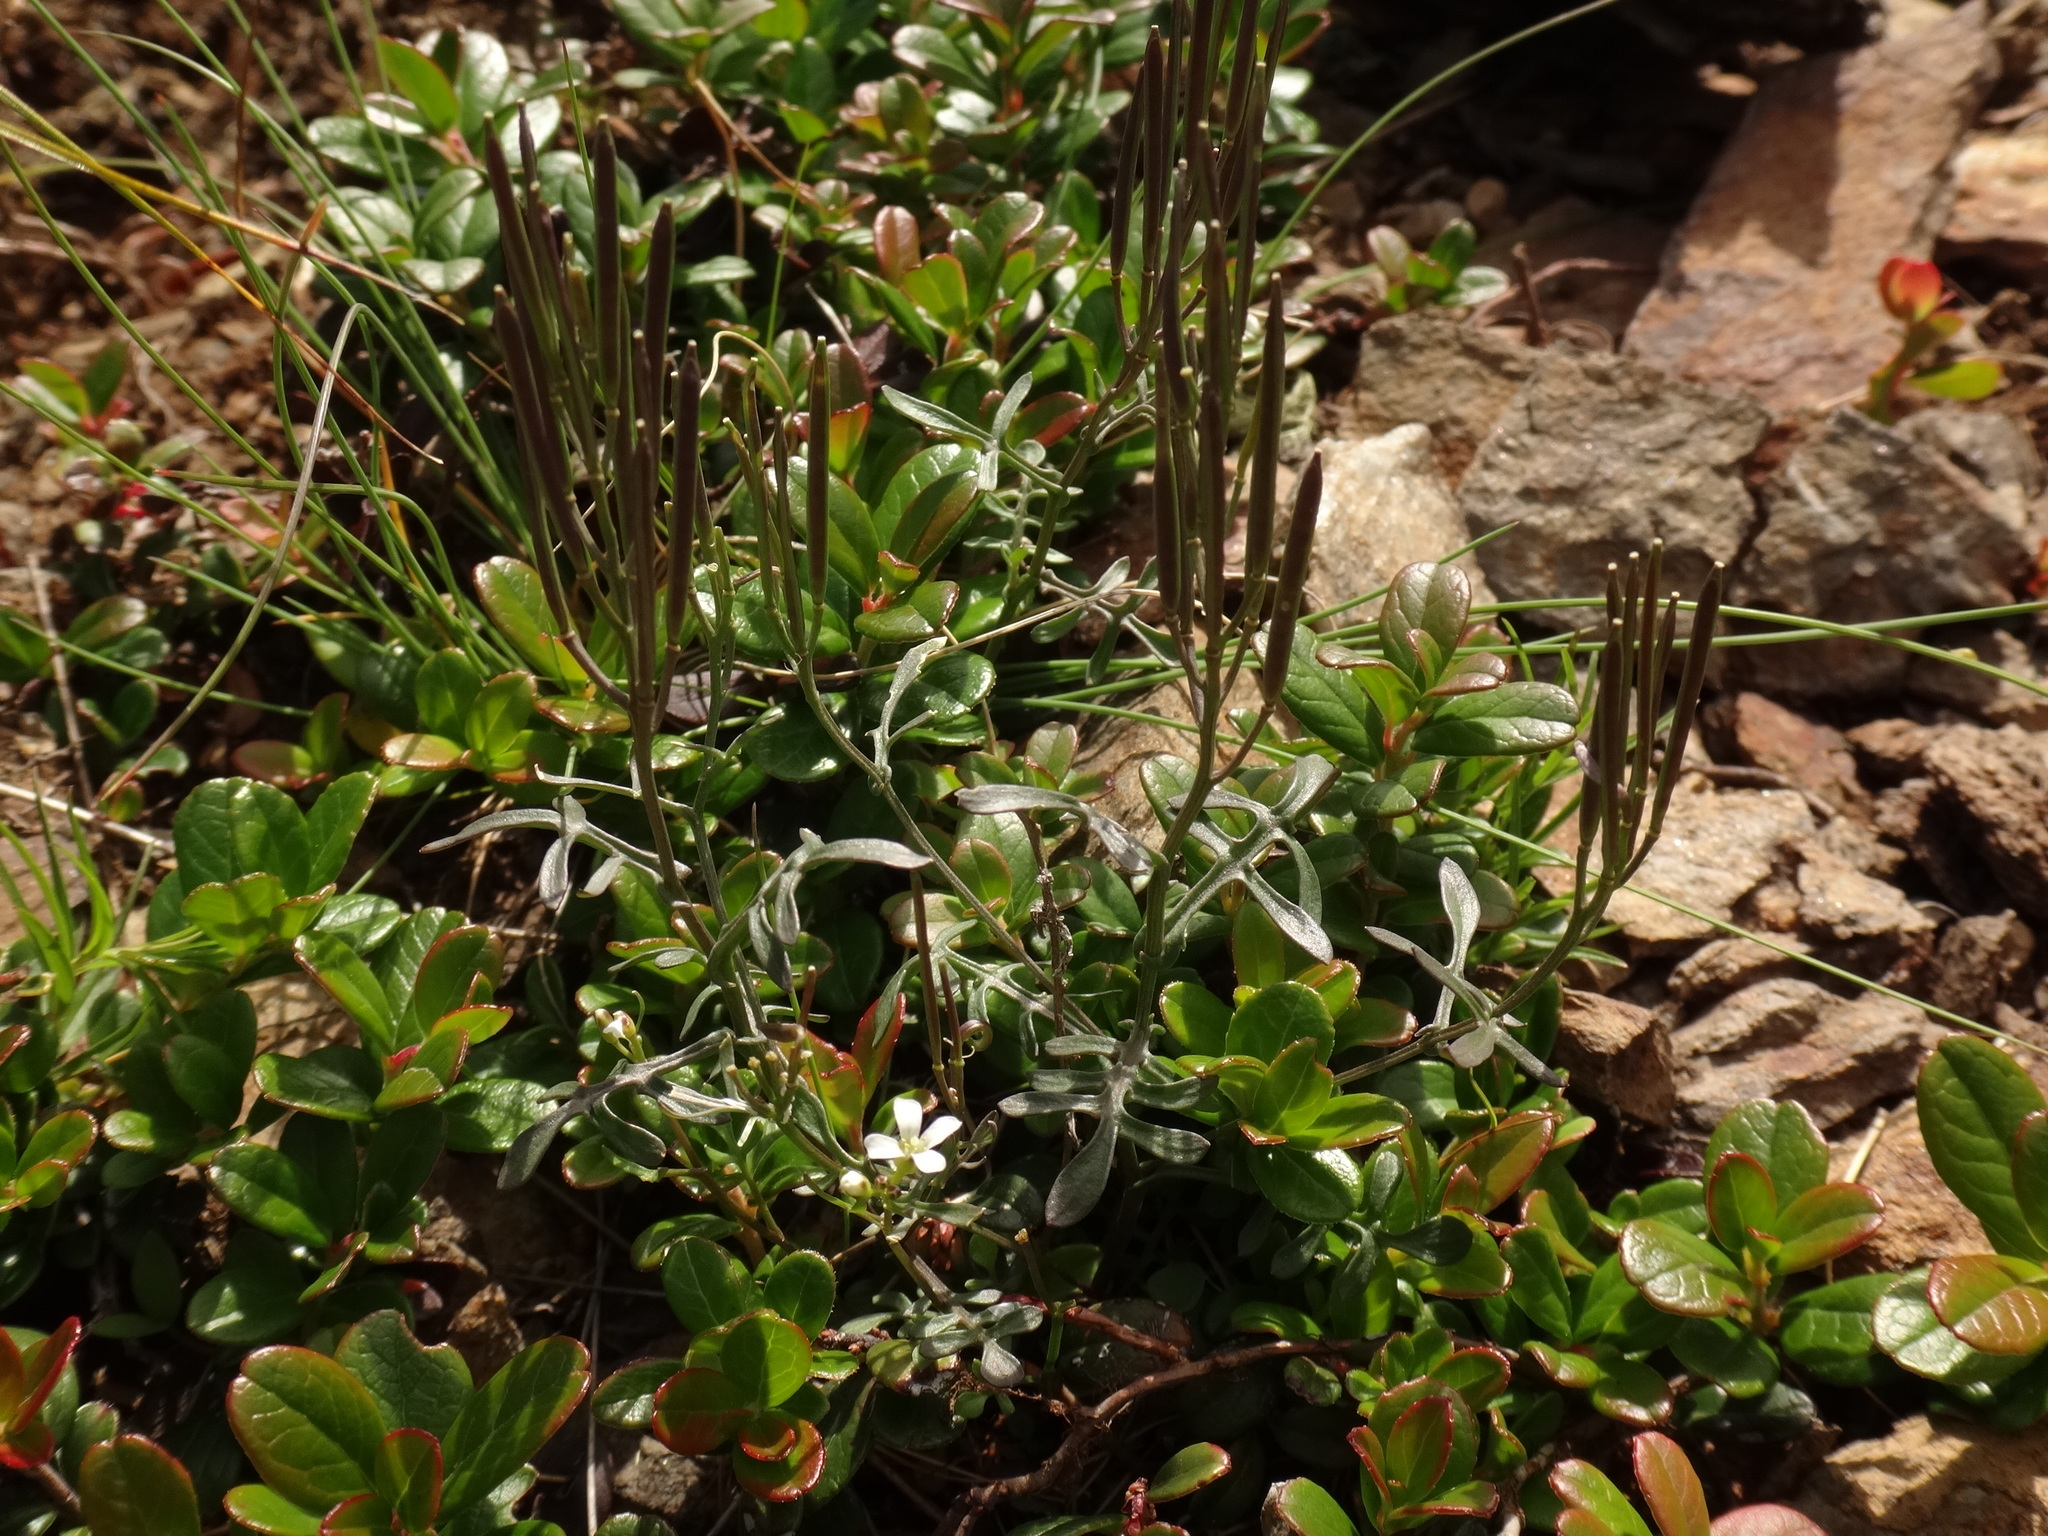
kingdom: Plantae
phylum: Tracheophyta
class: Magnoliopsida
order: Brassicales
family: Brassicaceae
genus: Cardamine
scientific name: Cardamine resedifolia
